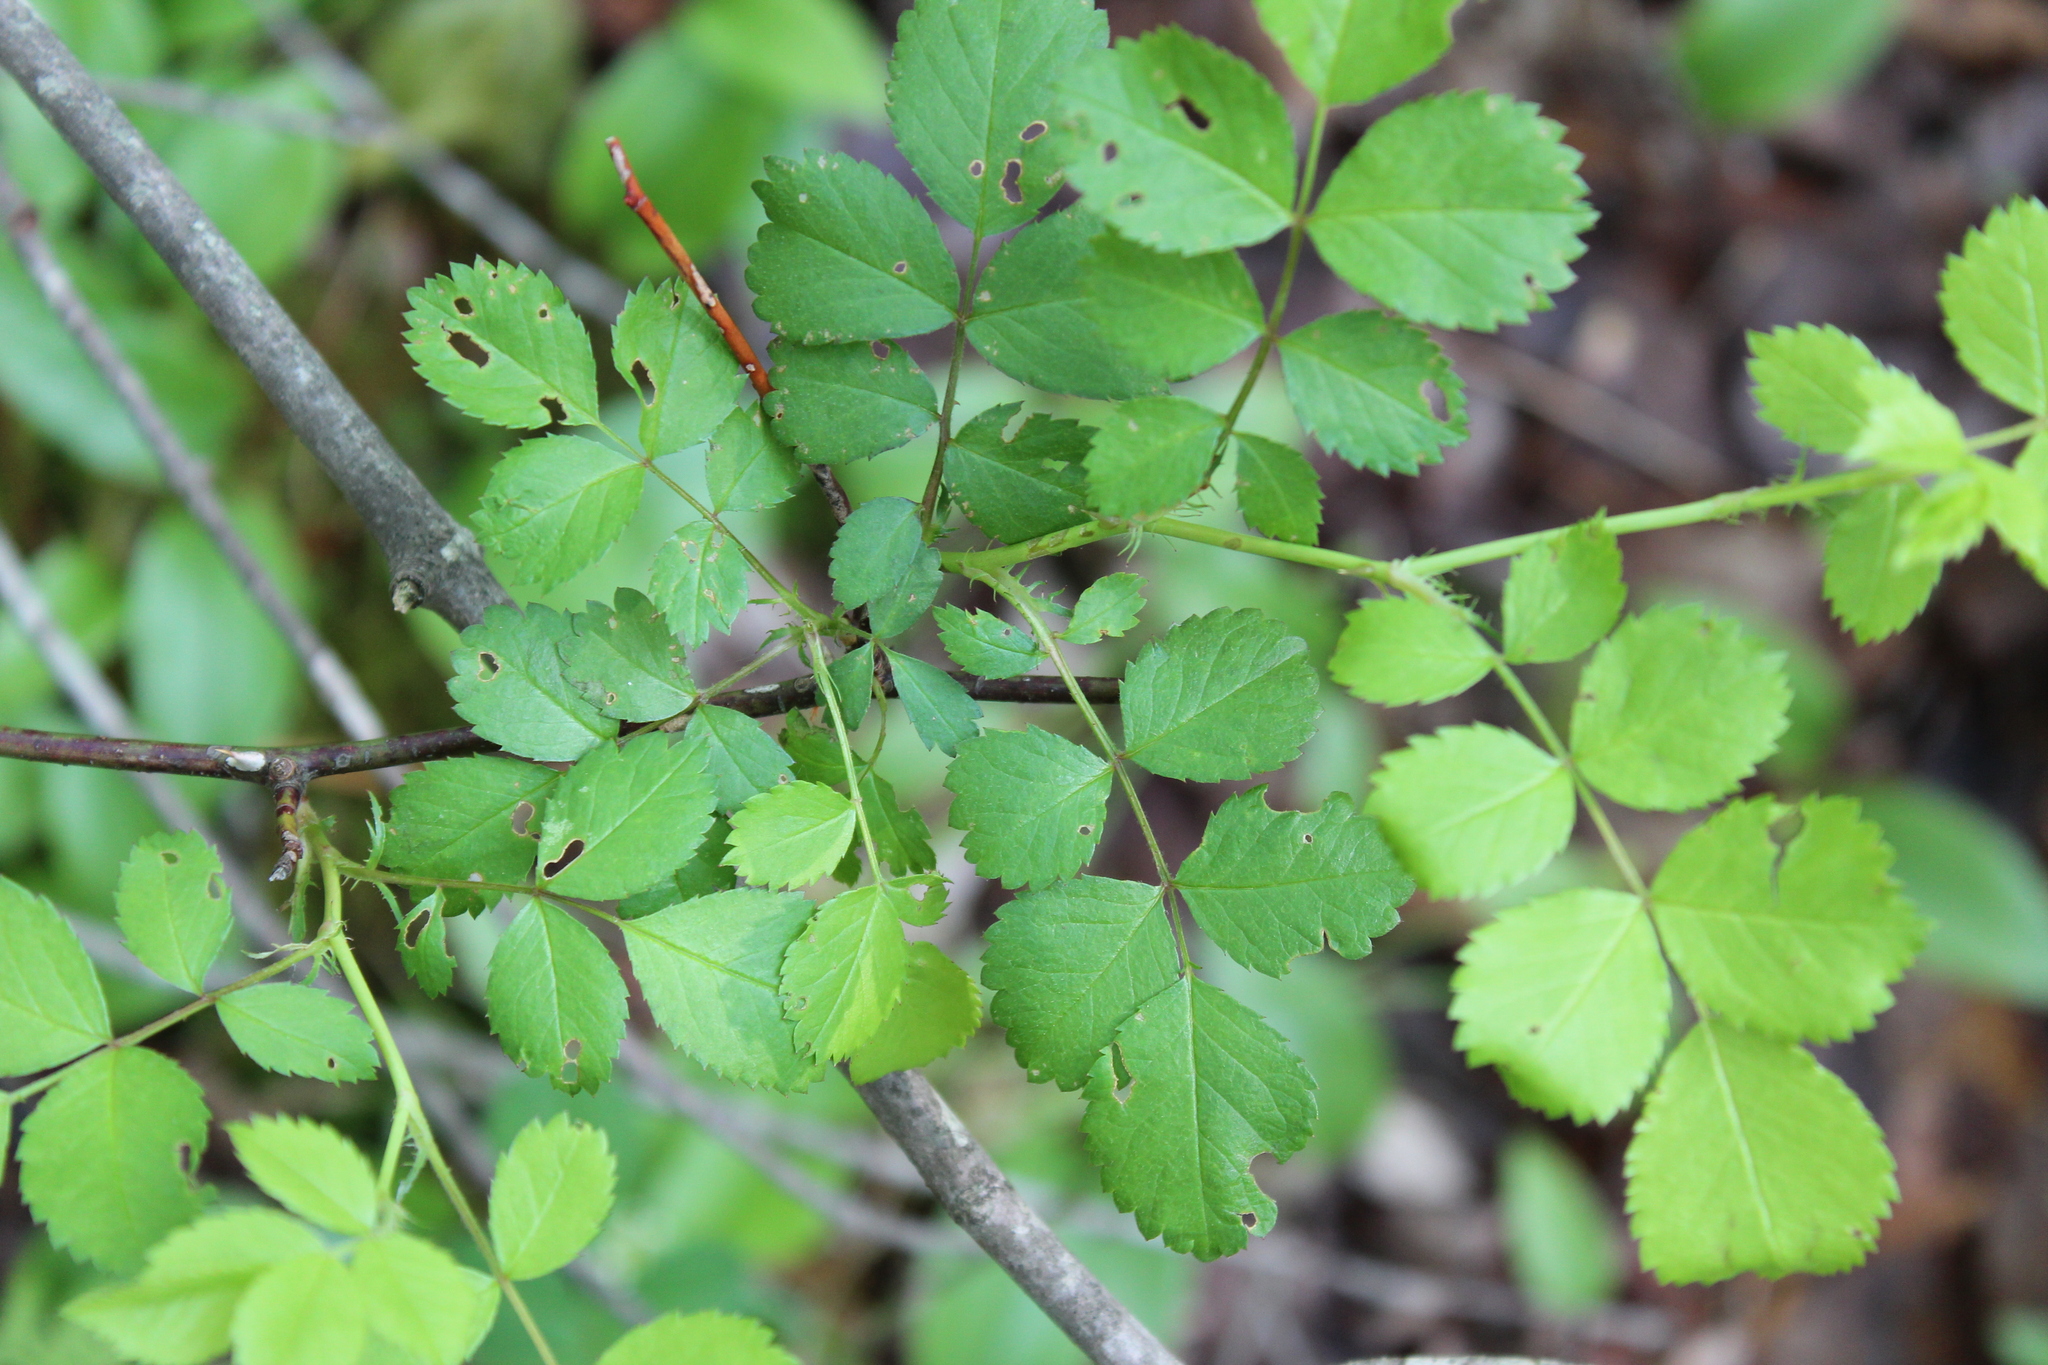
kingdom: Plantae
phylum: Tracheophyta
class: Magnoliopsida
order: Rosales
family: Rosaceae
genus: Rosa
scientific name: Rosa multiflora
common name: Multiflora rose
